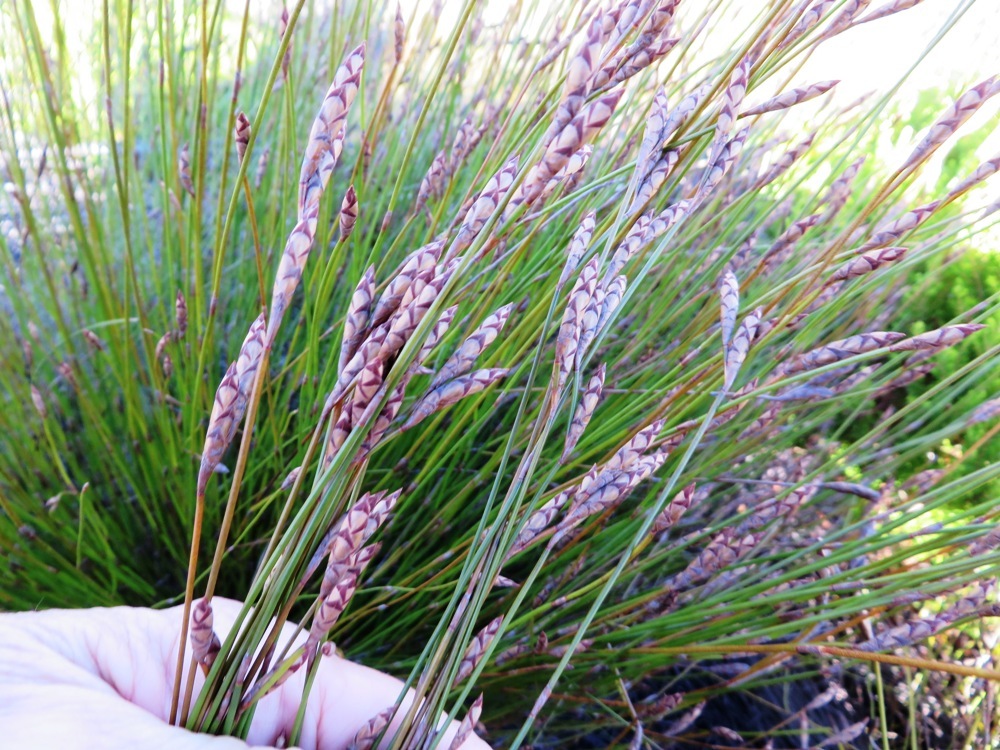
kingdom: Plantae
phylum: Tracheophyta
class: Liliopsida
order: Poales
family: Restionaceae
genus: Restio
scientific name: Restio fusiformis
